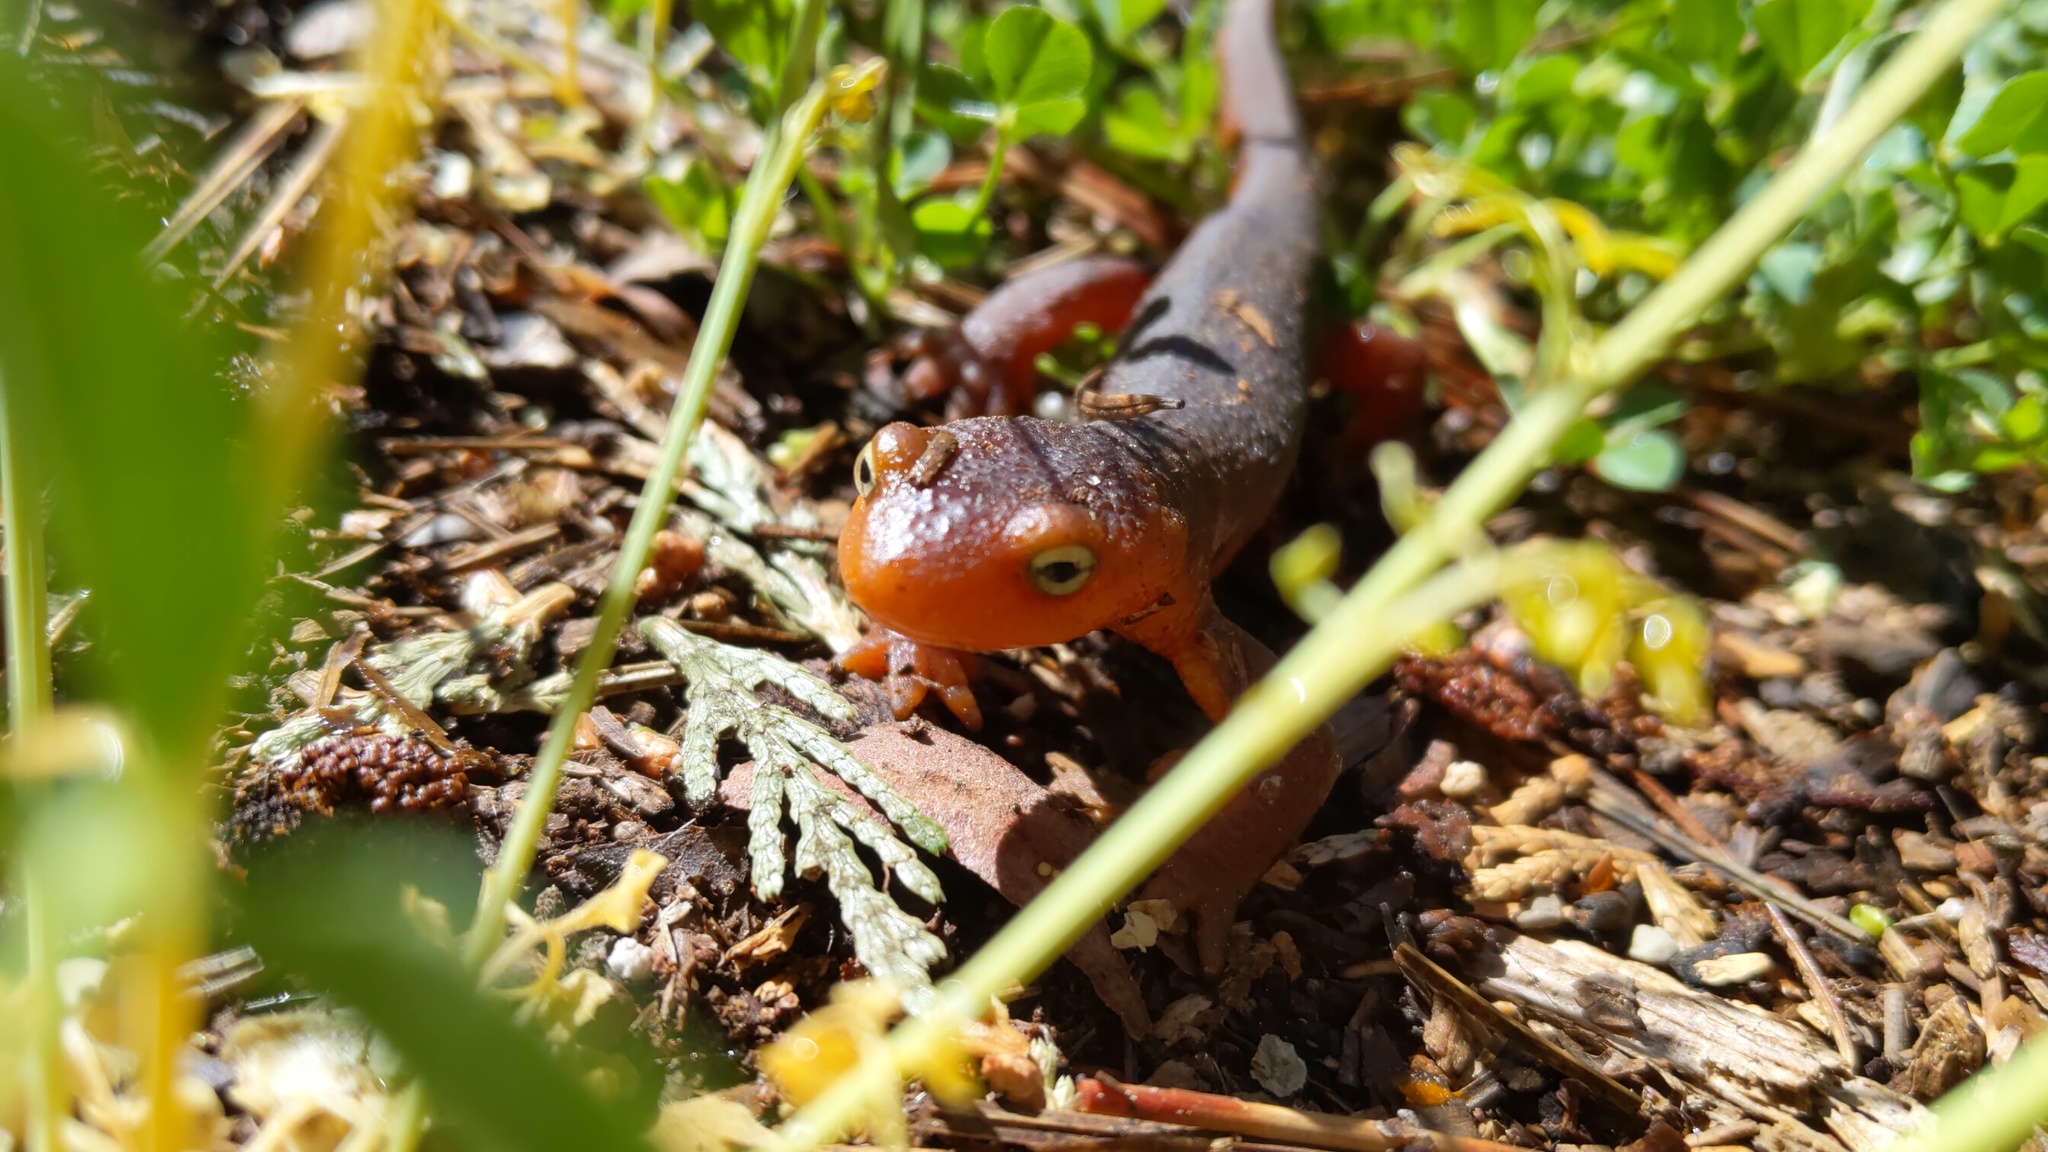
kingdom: Animalia
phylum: Chordata
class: Amphibia
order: Caudata
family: Salamandridae
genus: Taricha
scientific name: Taricha sierrae
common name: Sierra newt
